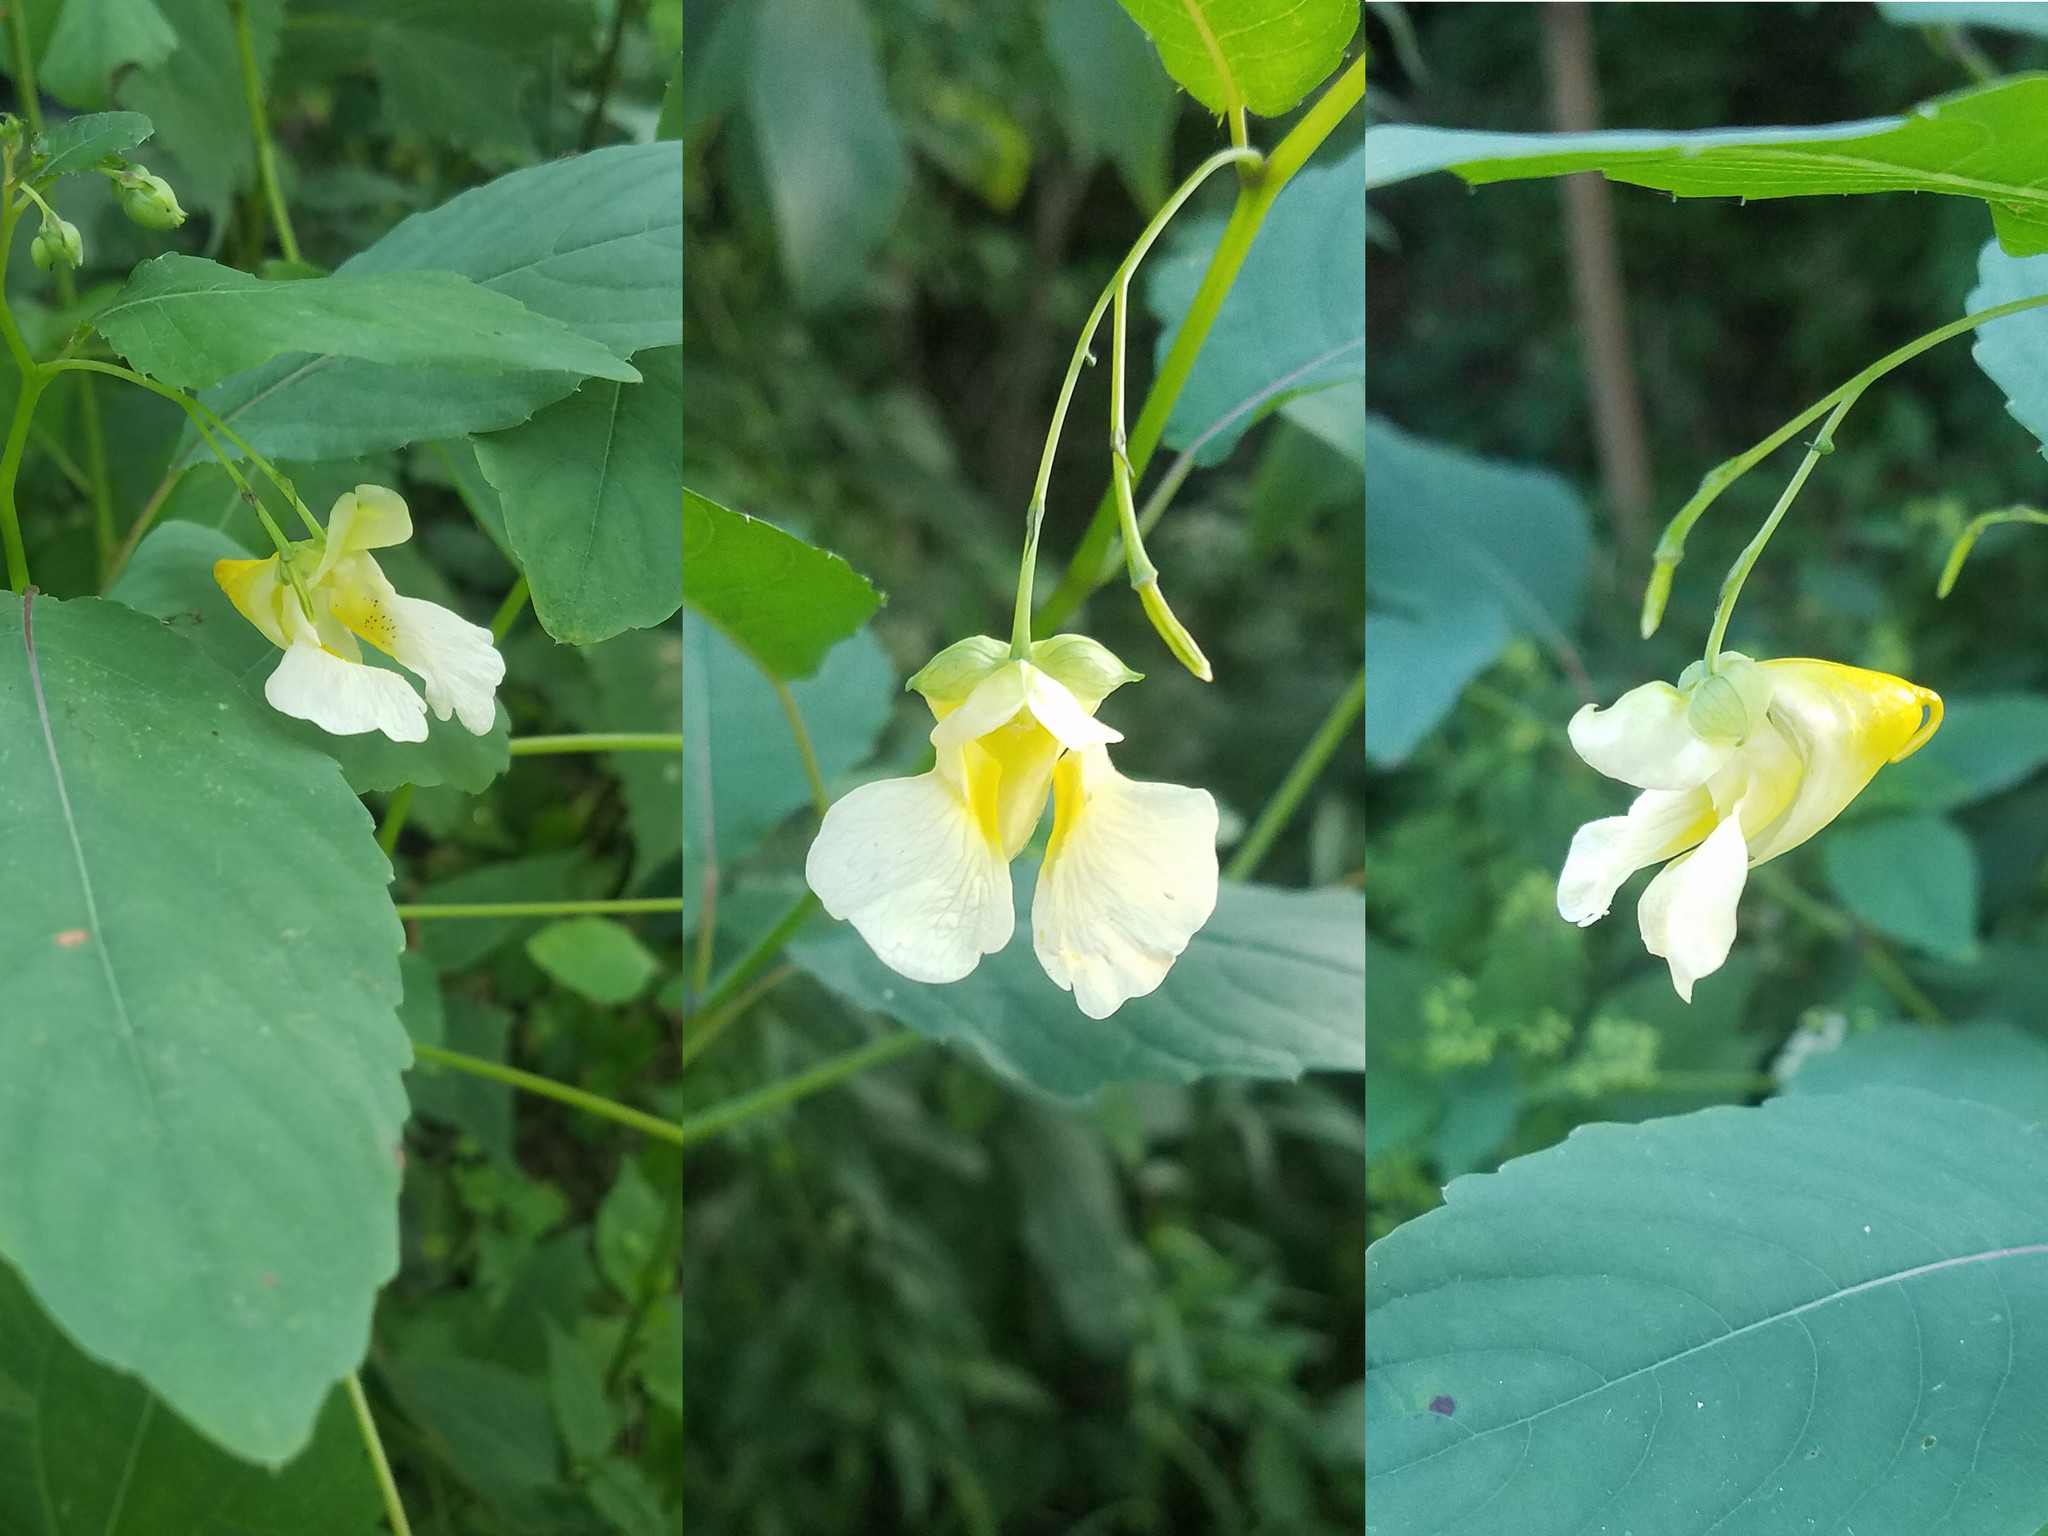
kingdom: Plantae
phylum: Tracheophyta
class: Magnoliopsida
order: Ericales
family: Balsaminaceae
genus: Impatiens
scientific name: Impatiens pallida
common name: Pale snapweed
